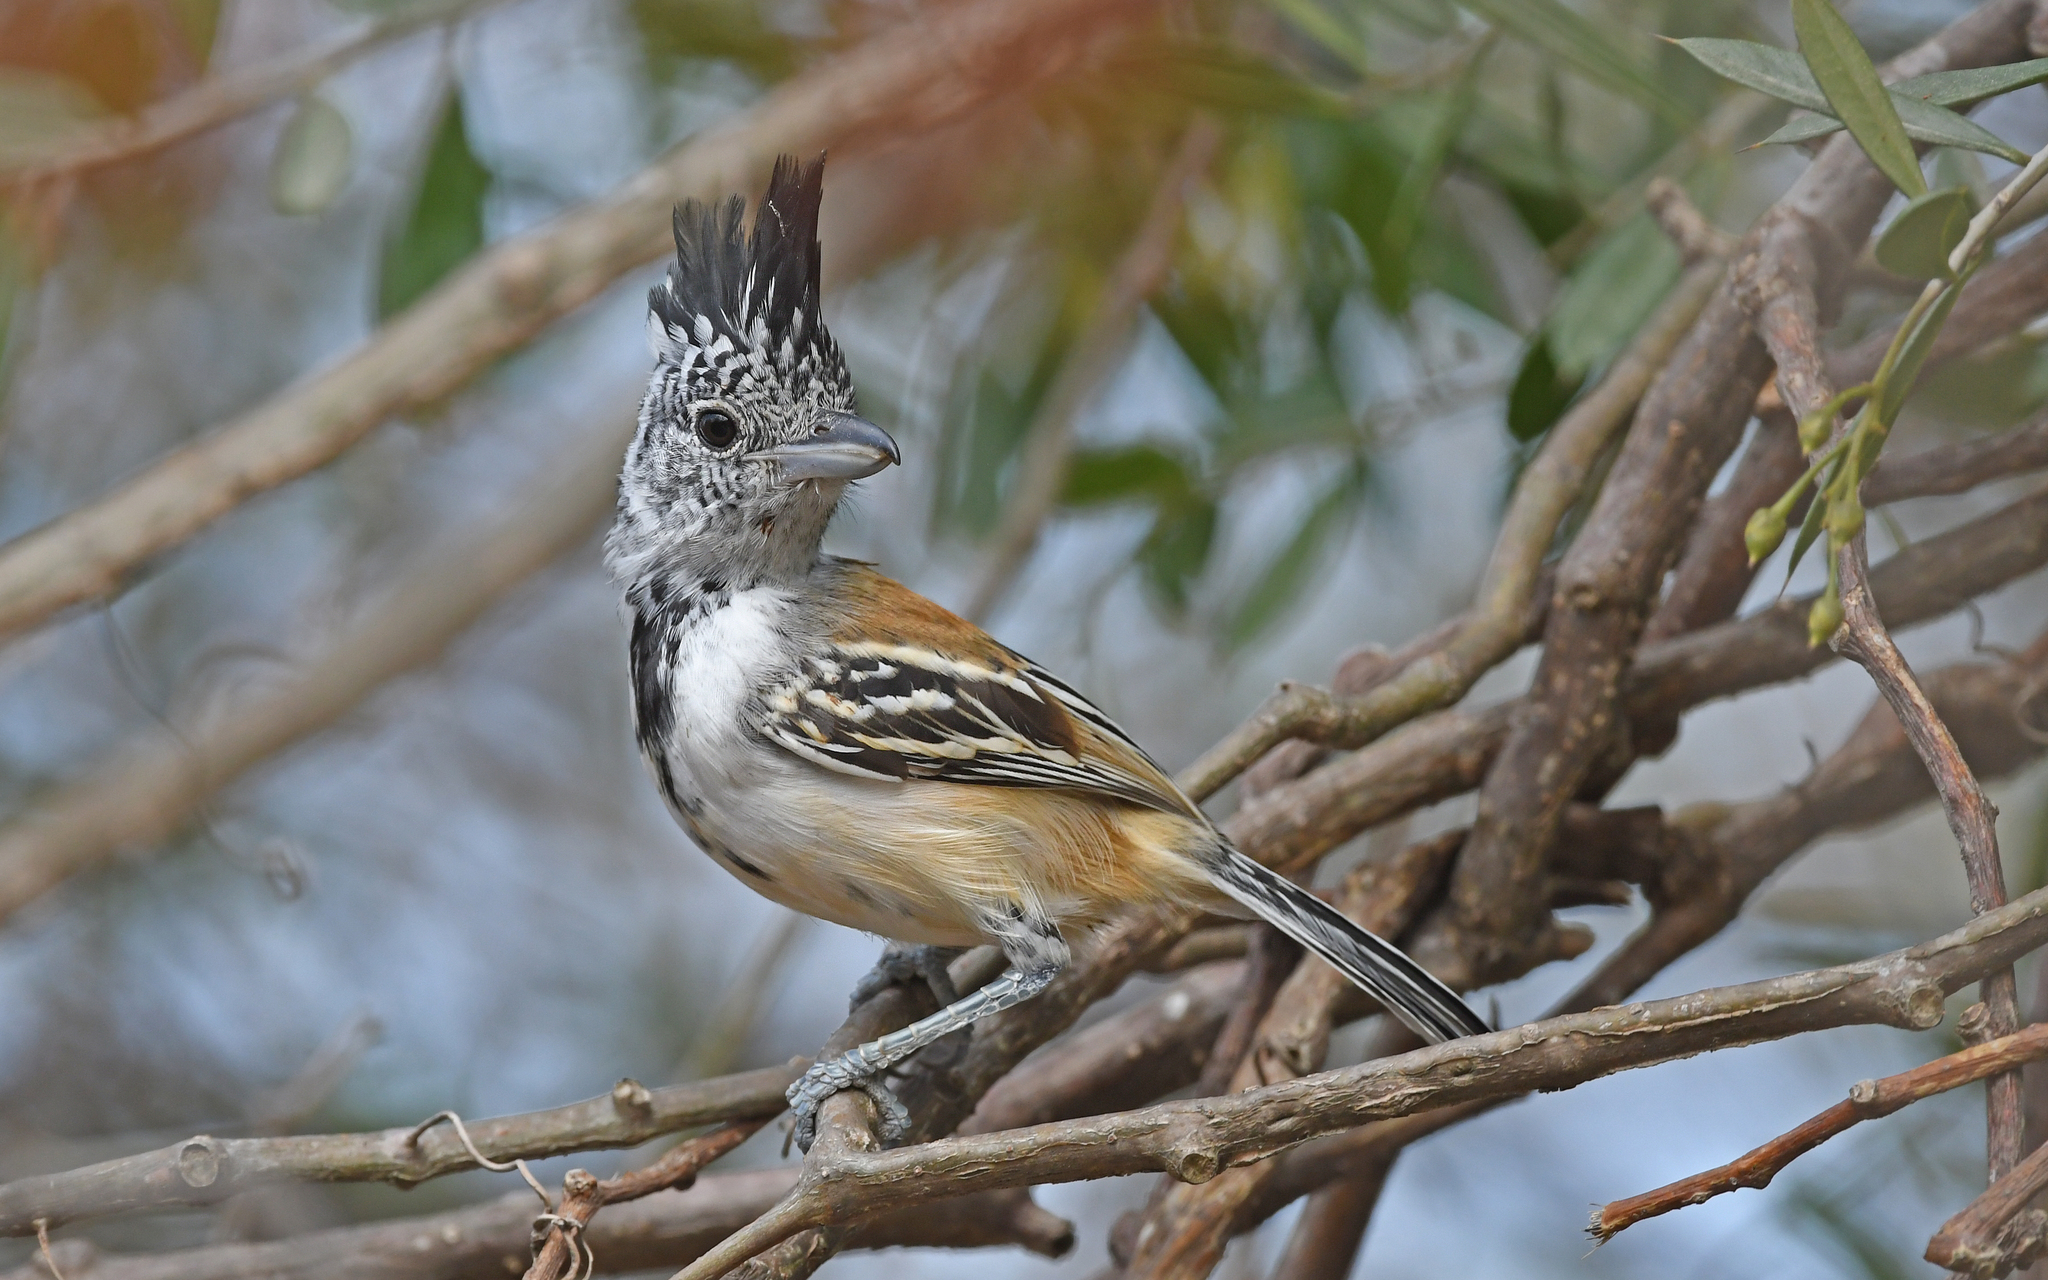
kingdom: Animalia
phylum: Chordata
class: Aves
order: Passeriformes
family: Thamnophilidae
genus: Sakesphorus
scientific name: Sakesphorus canadensis
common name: Black-crested antshrike
